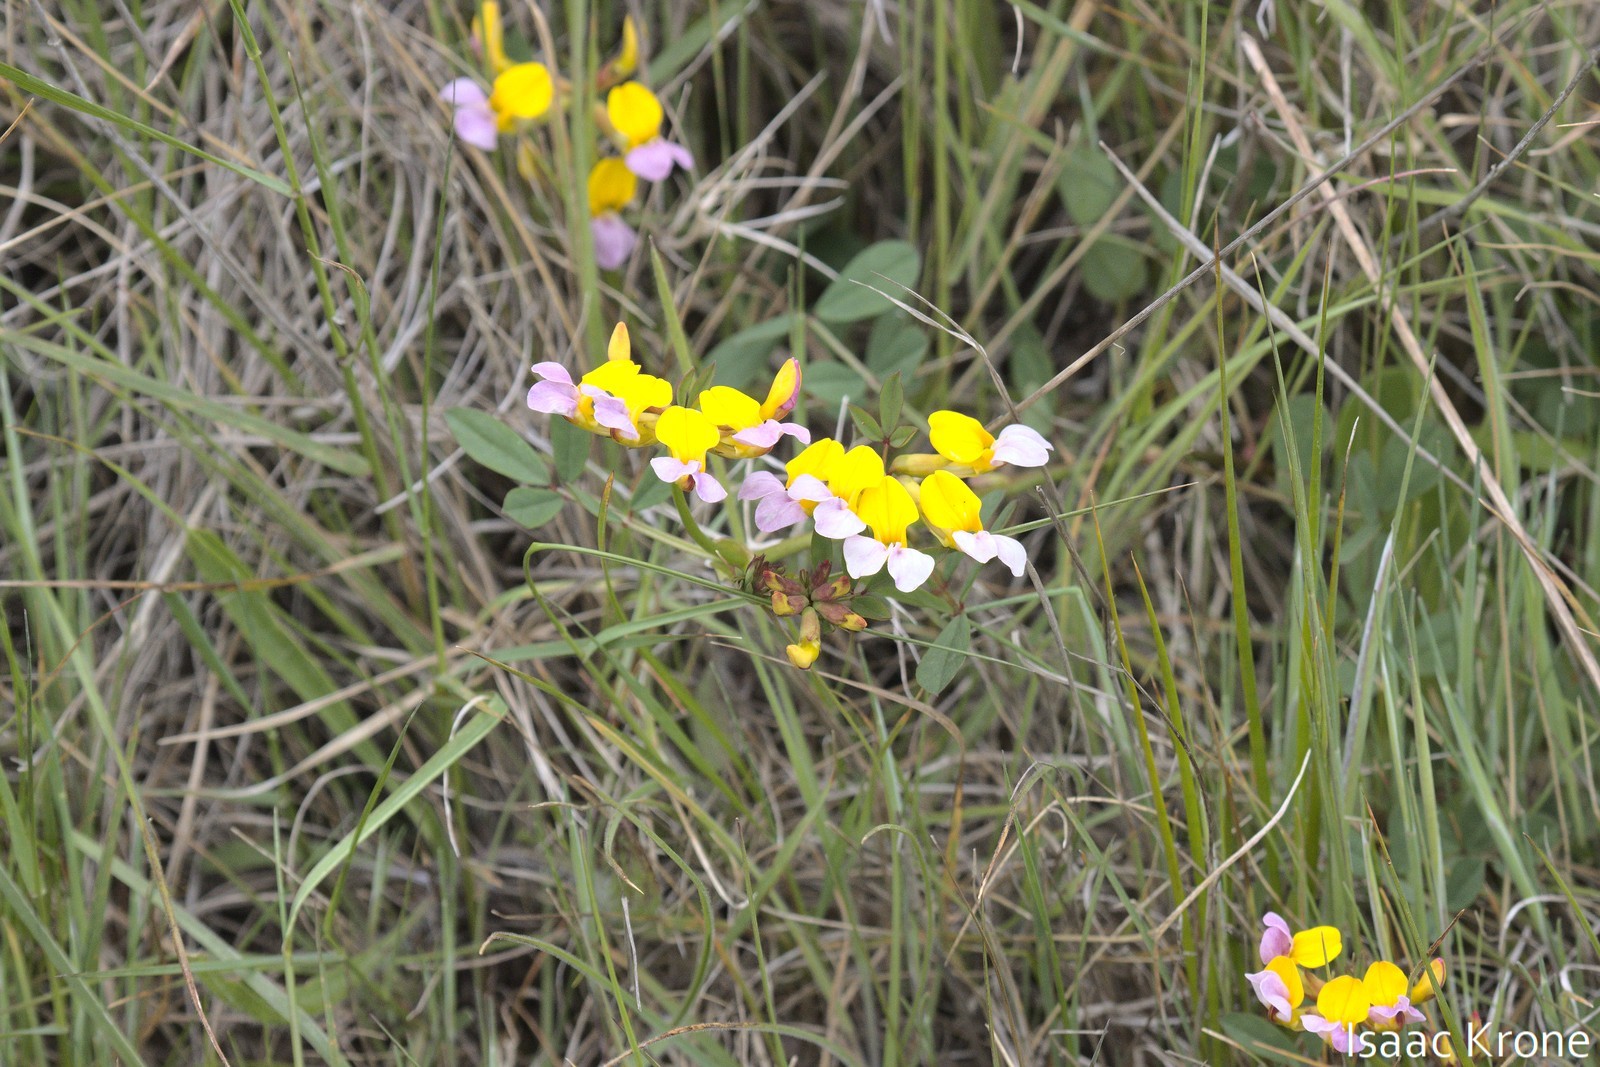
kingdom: Plantae
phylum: Tracheophyta
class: Magnoliopsida
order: Fabales
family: Fabaceae
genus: Hosackia
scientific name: Hosackia gracilis
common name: Seaside bird's-foot lotus
